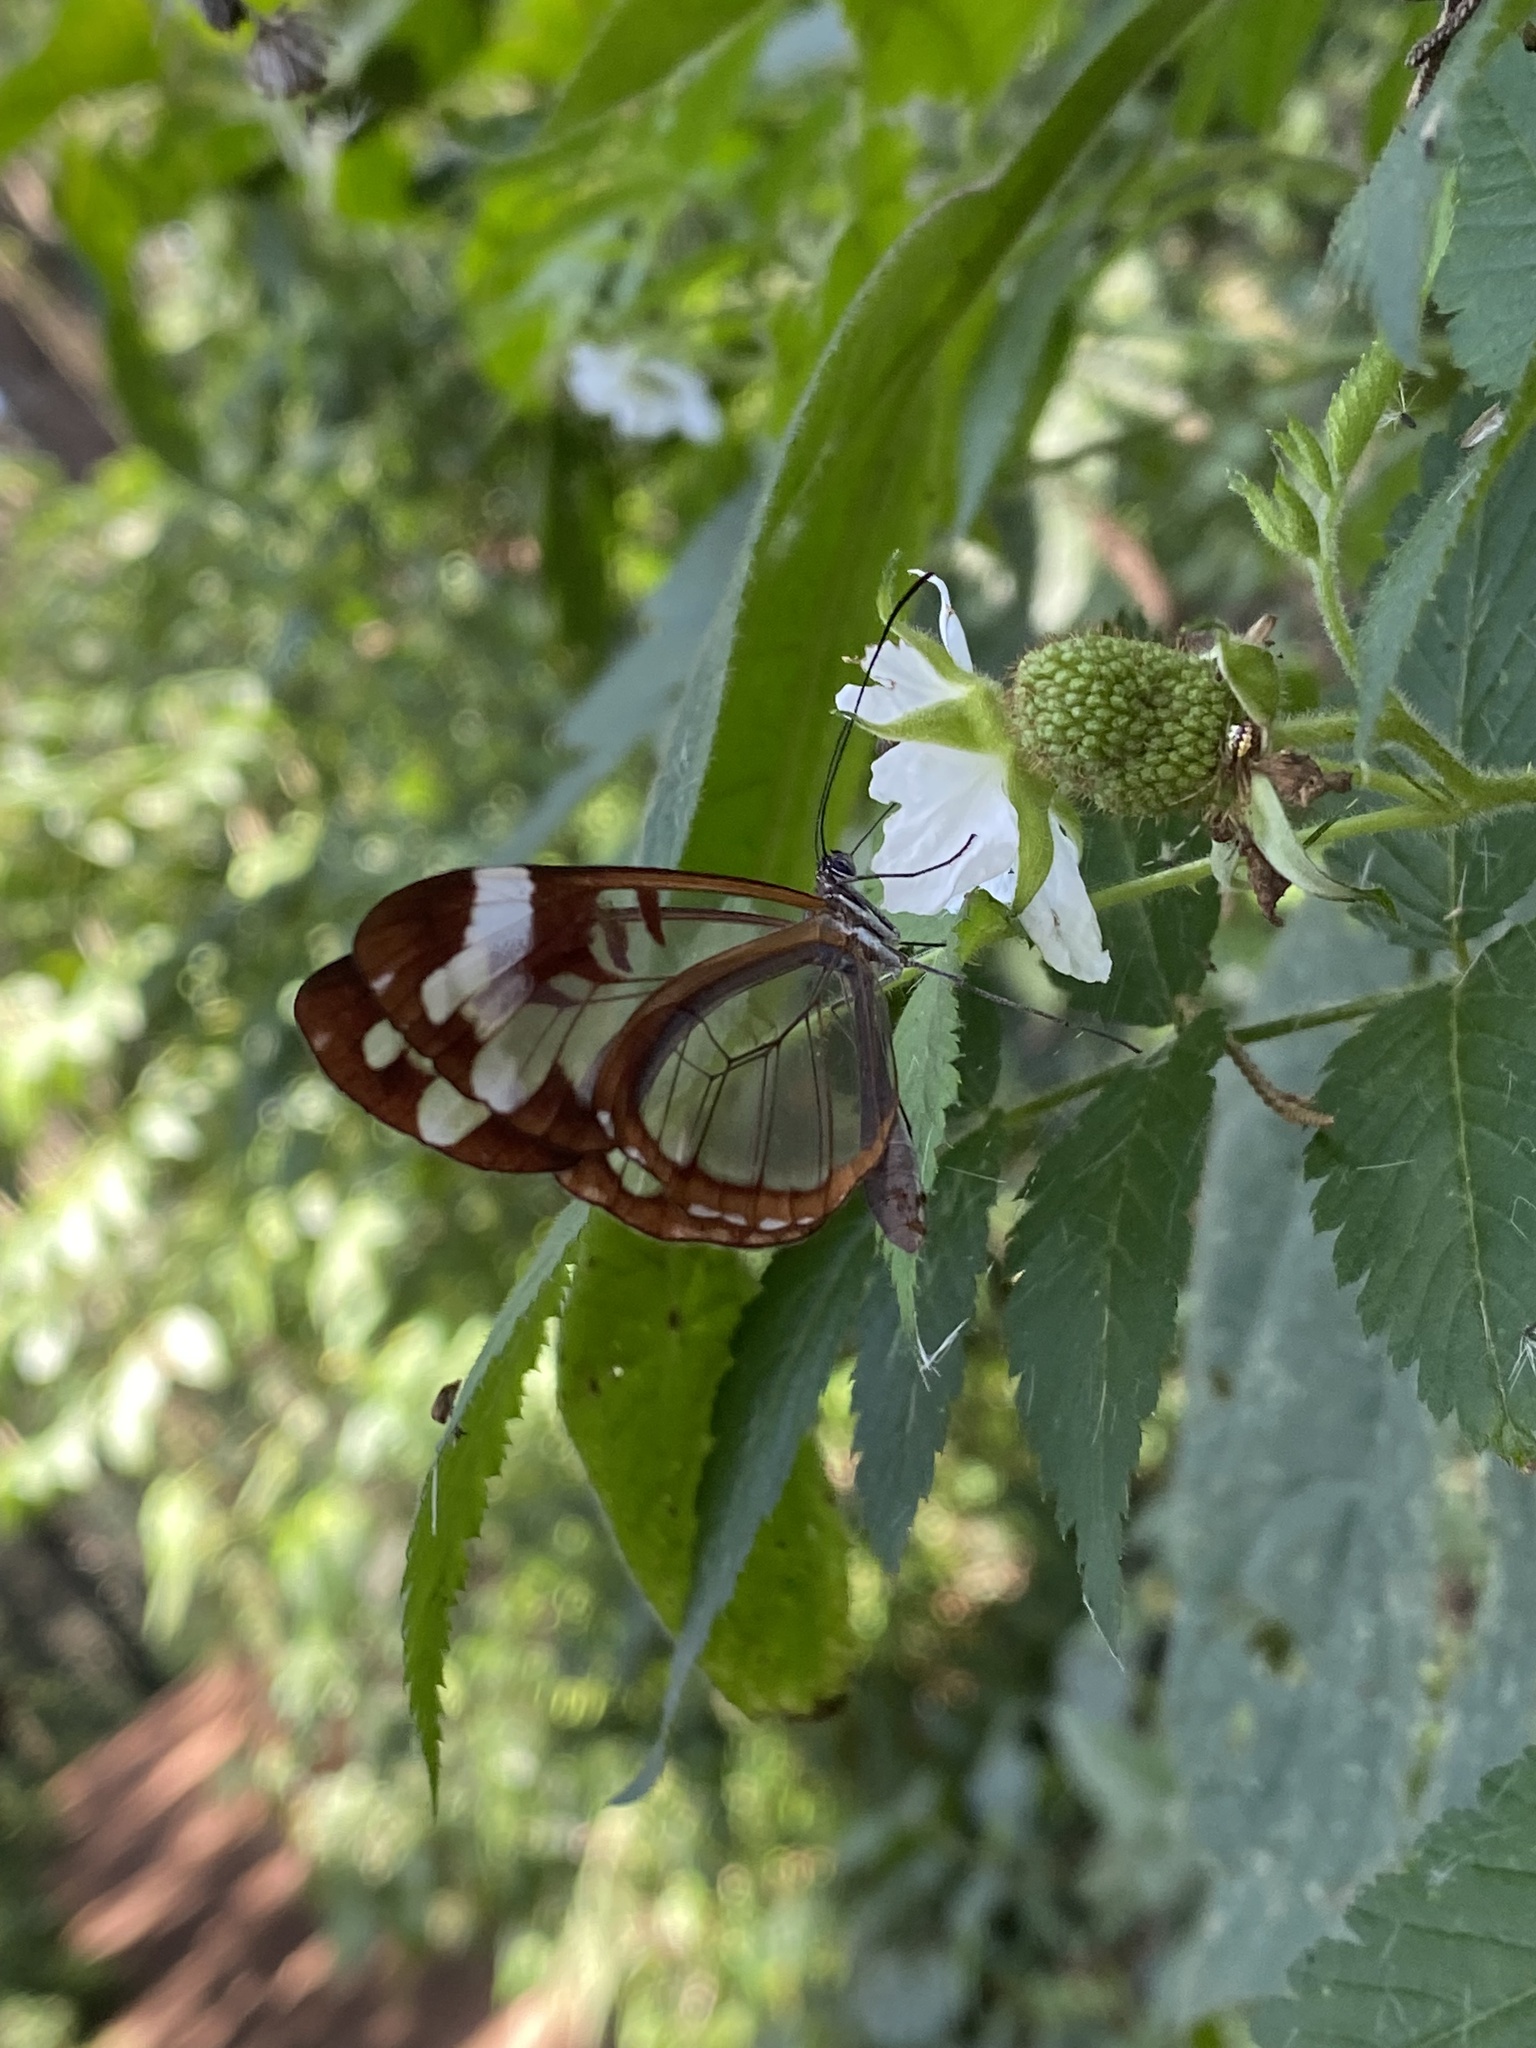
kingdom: Animalia
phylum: Arthropoda
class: Insecta
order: Lepidoptera
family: Nymphalidae
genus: Oleria
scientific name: Oleria zea
